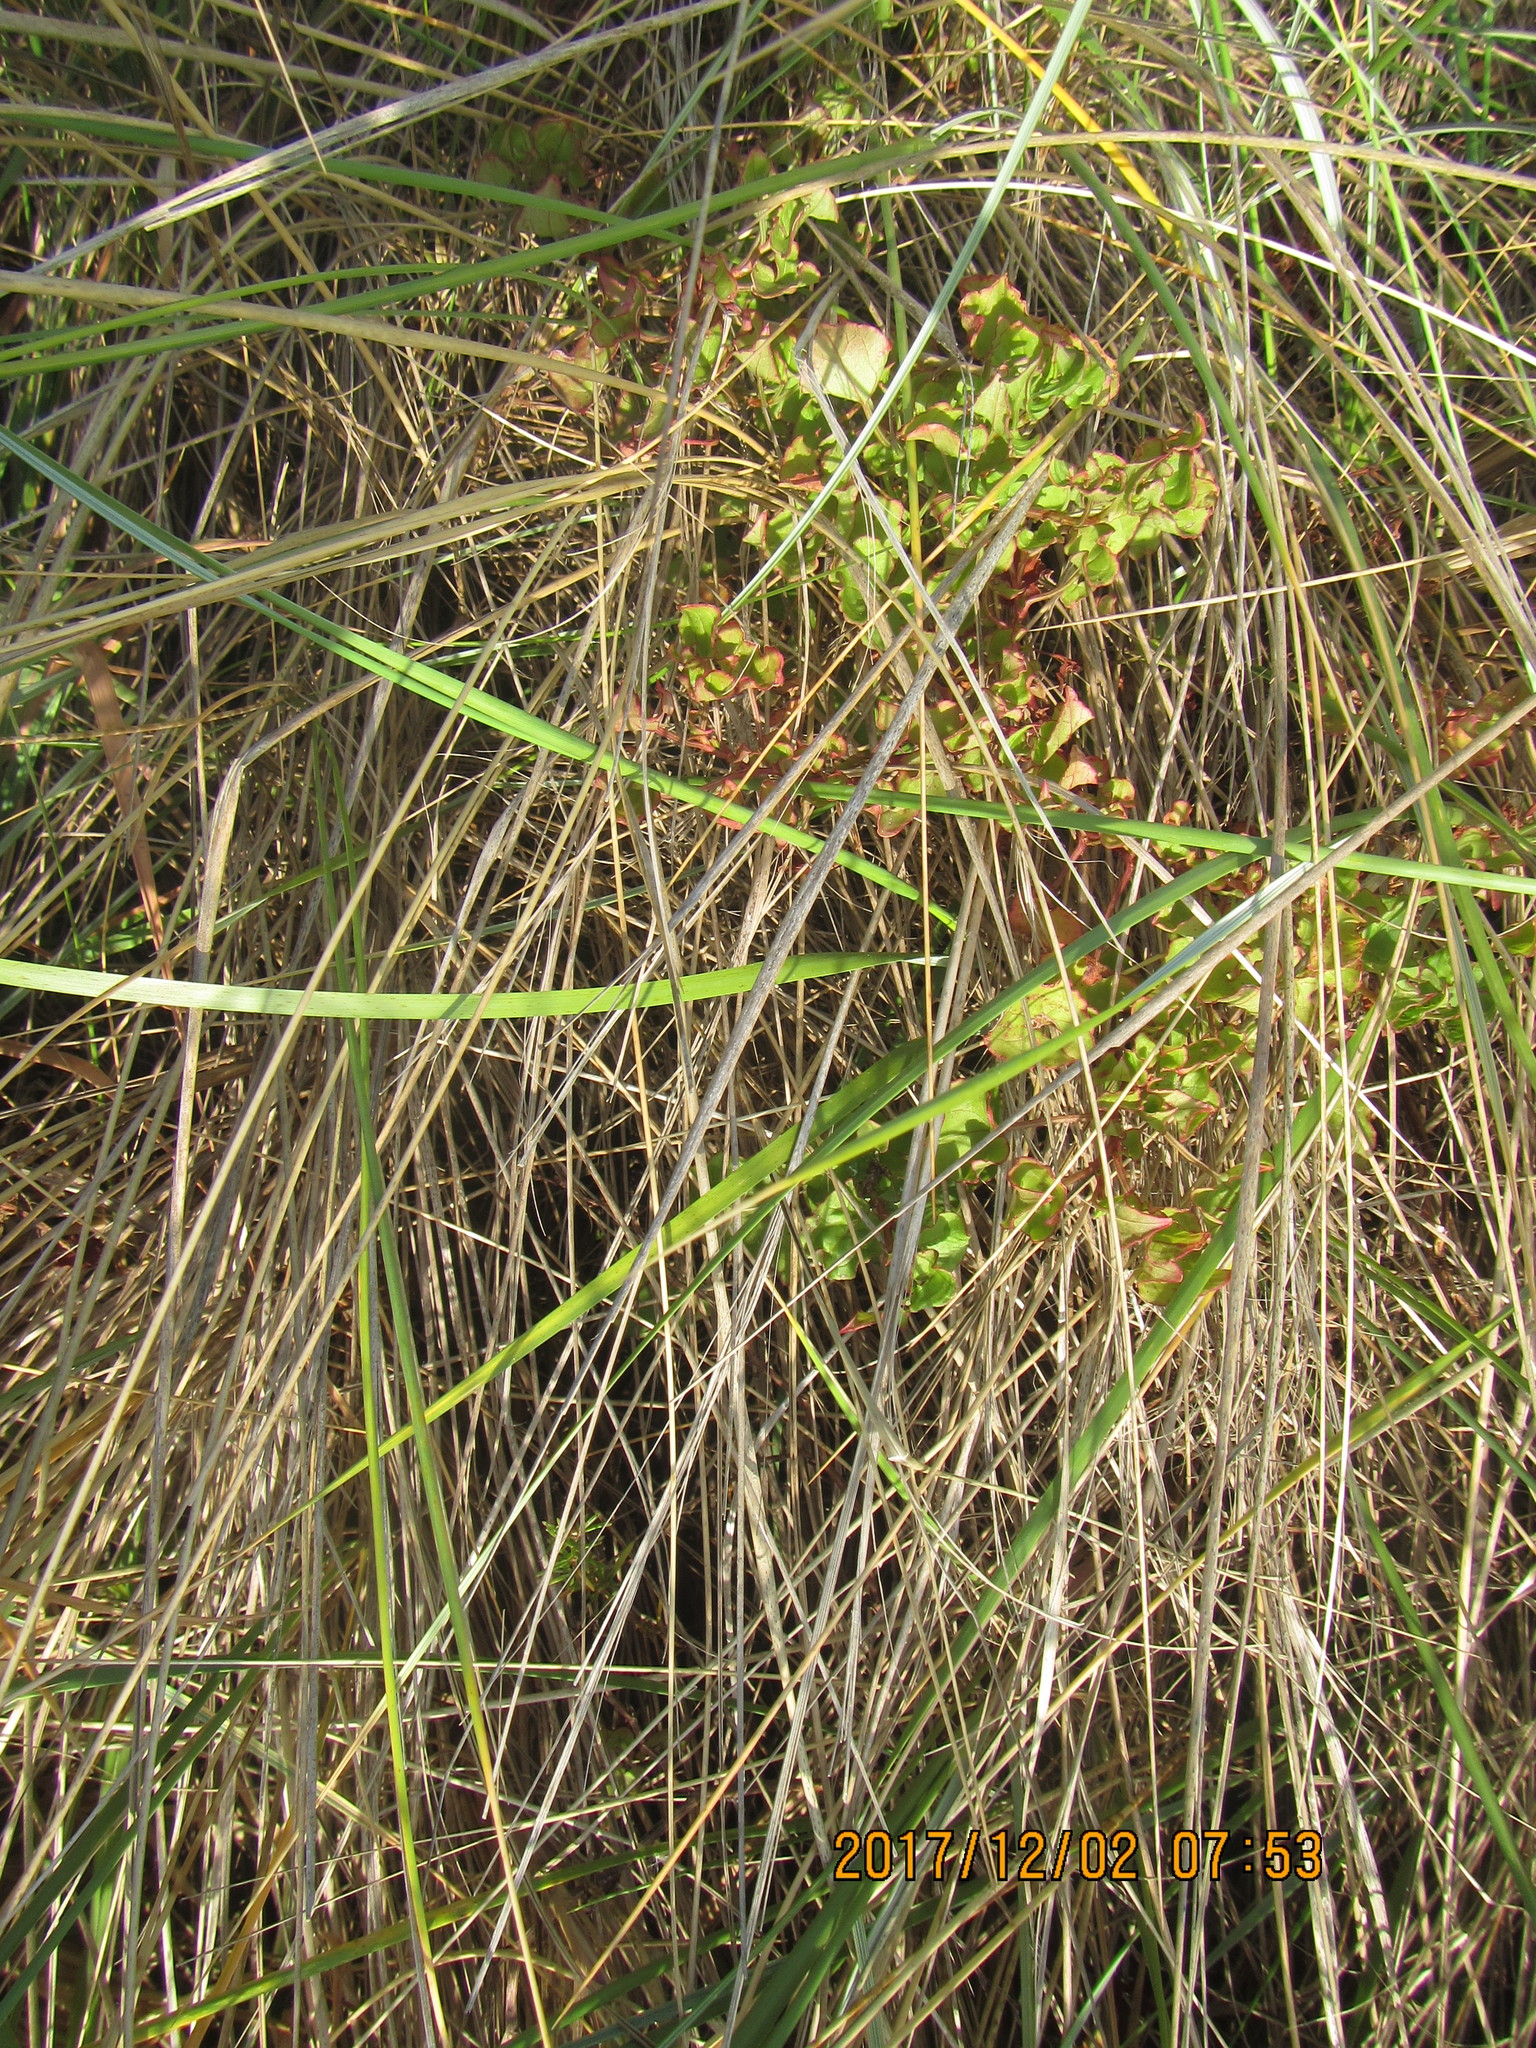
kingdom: Plantae
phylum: Tracheophyta
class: Magnoliopsida
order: Caryophyllales
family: Polygonaceae
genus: Rumex
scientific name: Rumex sagittatus
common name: Climbing dock
